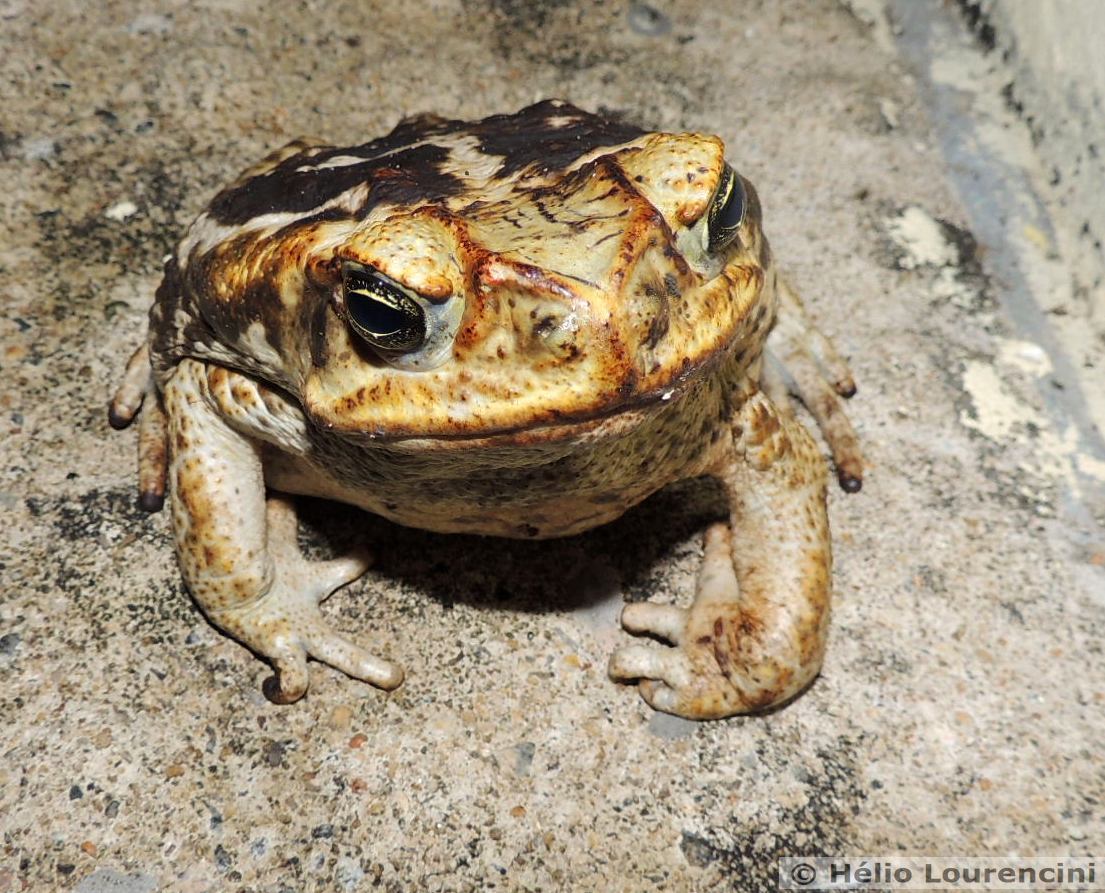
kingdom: Animalia
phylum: Chordata
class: Amphibia
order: Anura
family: Bufonidae
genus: Rhinella
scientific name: Rhinella diptycha
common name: Cope's toad
